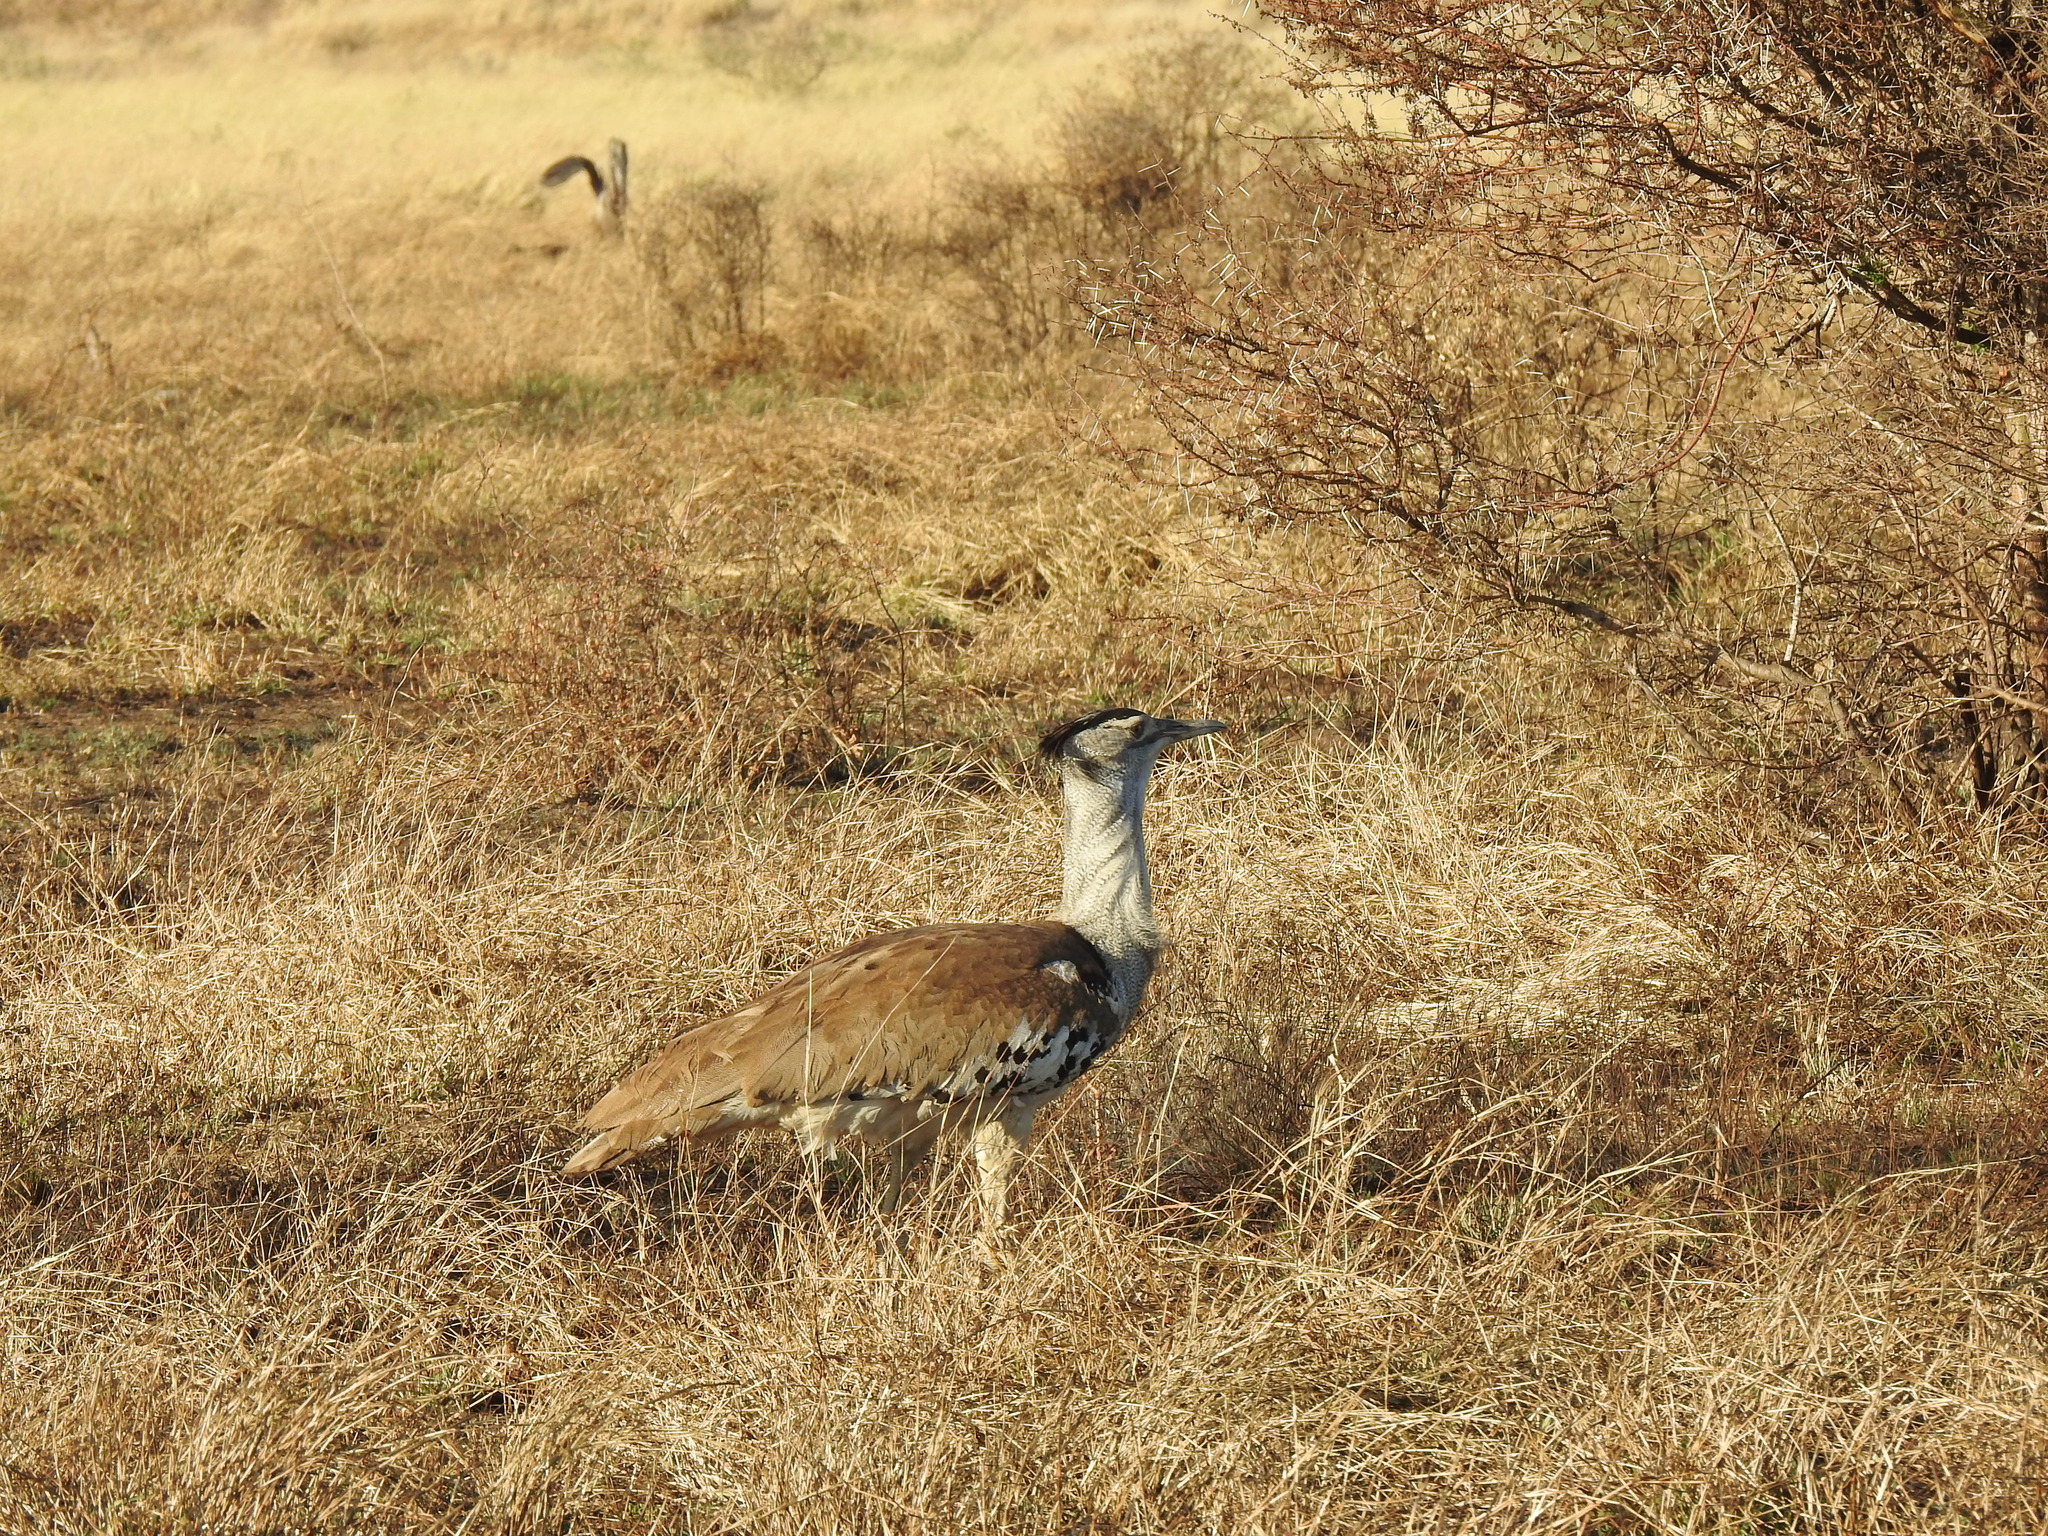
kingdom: Animalia
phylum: Chordata
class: Aves
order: Otidiformes
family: Otididae
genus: Ardeotis
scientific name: Ardeotis kori
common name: Kori bustard
